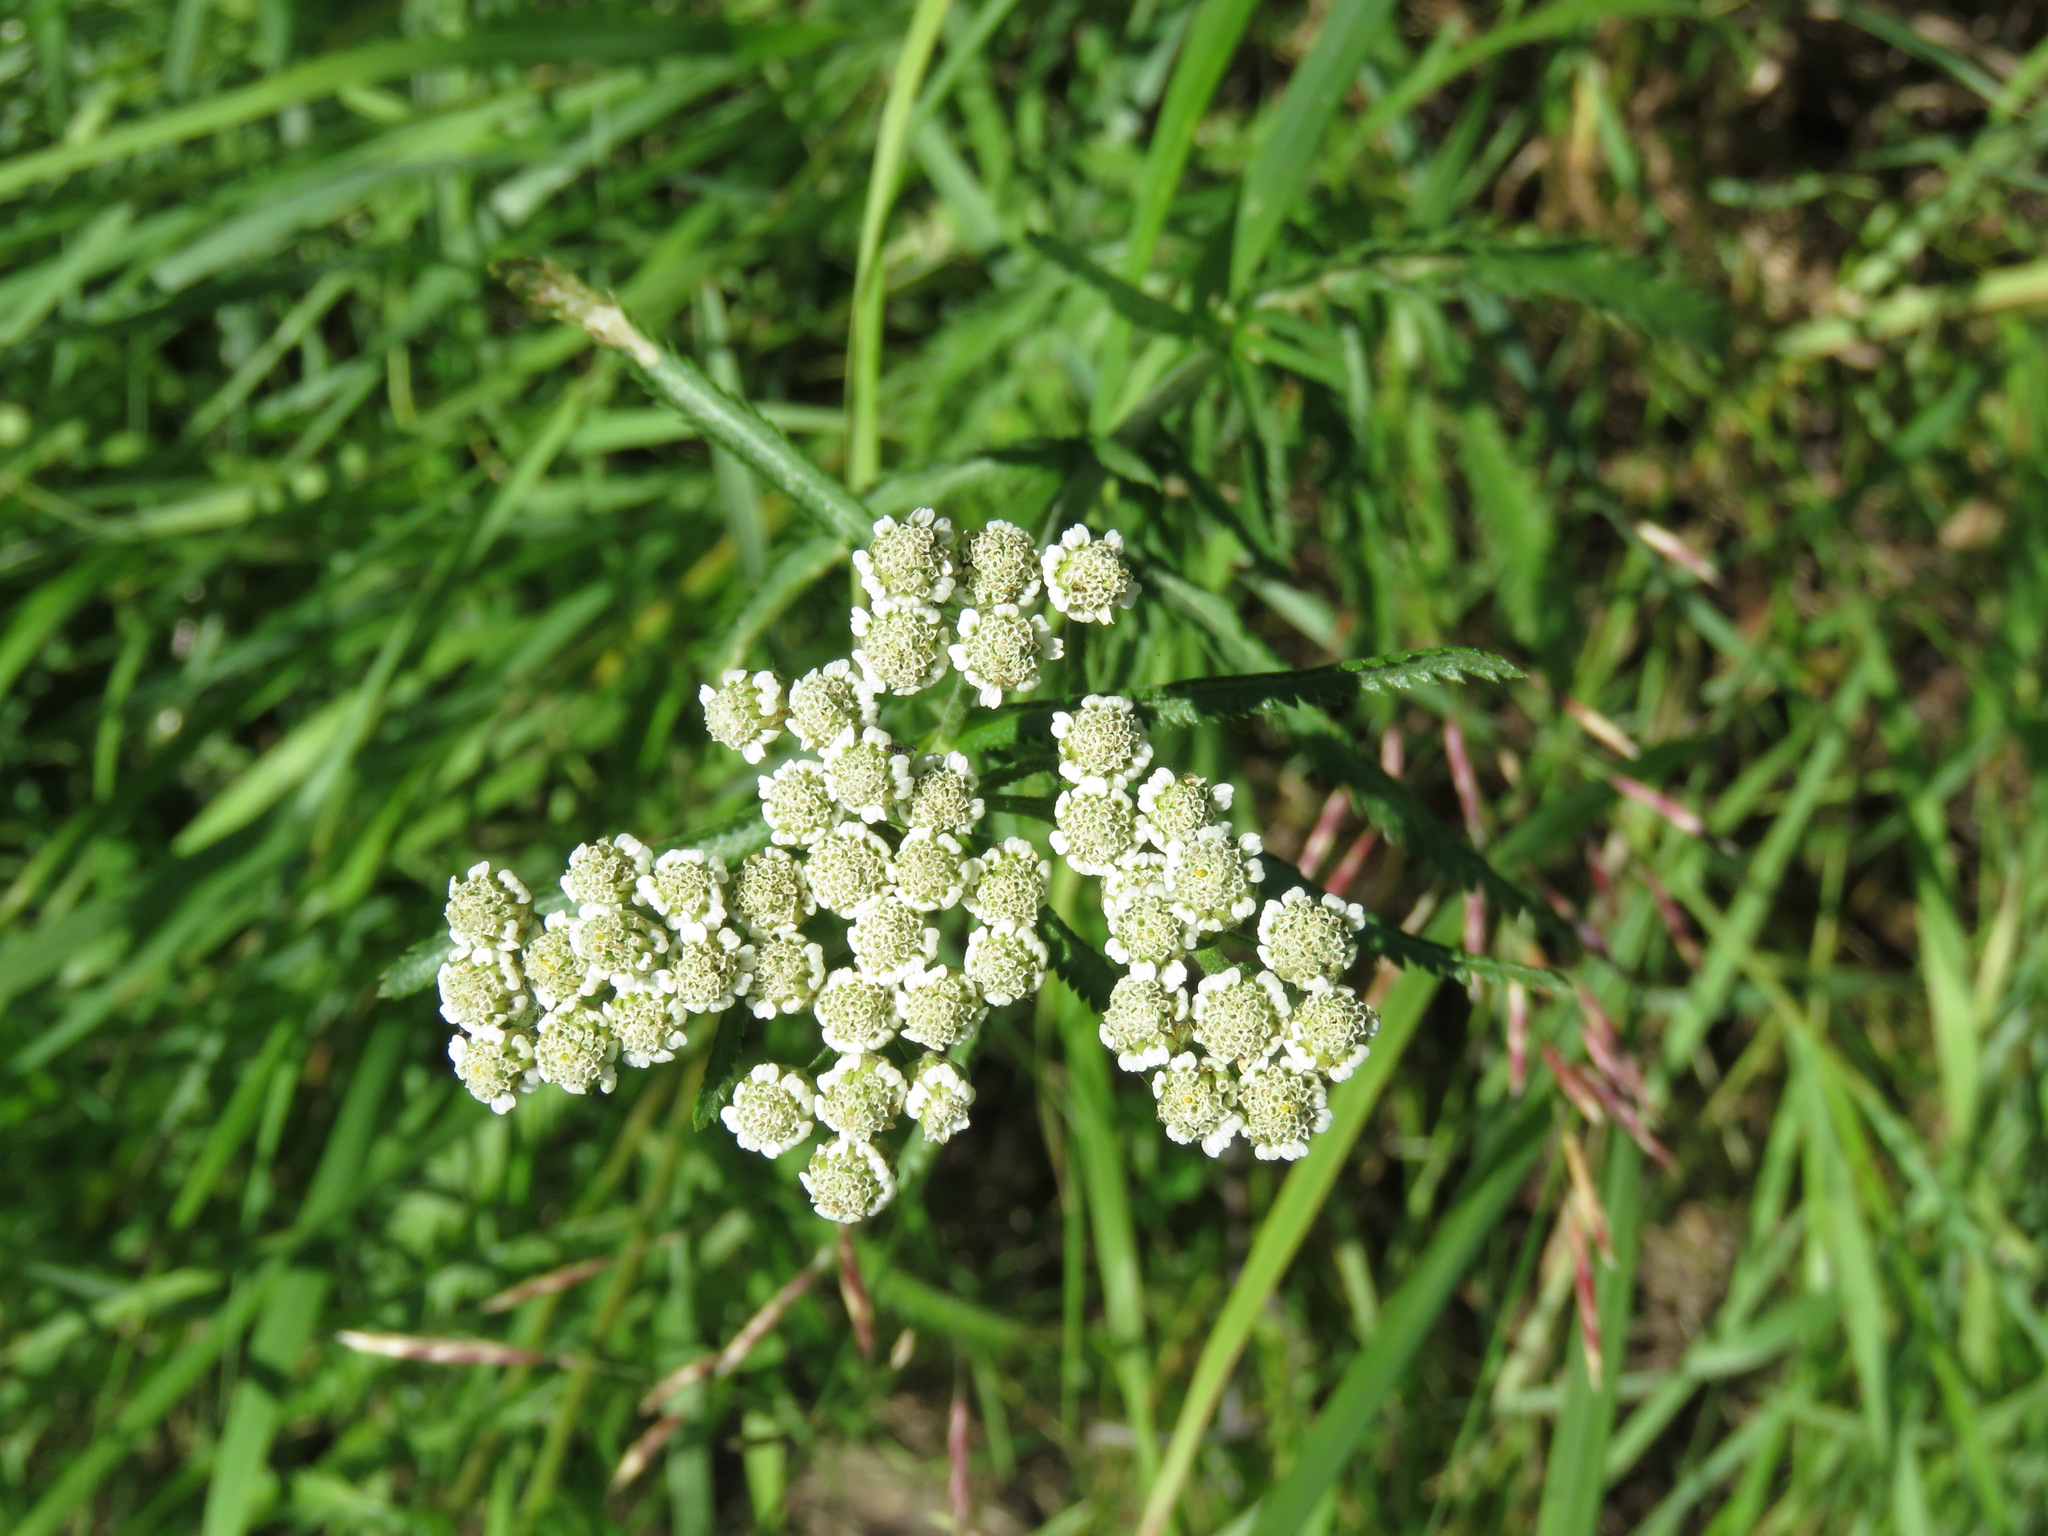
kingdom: Plantae
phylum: Tracheophyta
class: Magnoliopsida
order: Asterales
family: Asteraceae
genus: Achillea
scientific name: Achillea alpina
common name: Siberian yarrow
